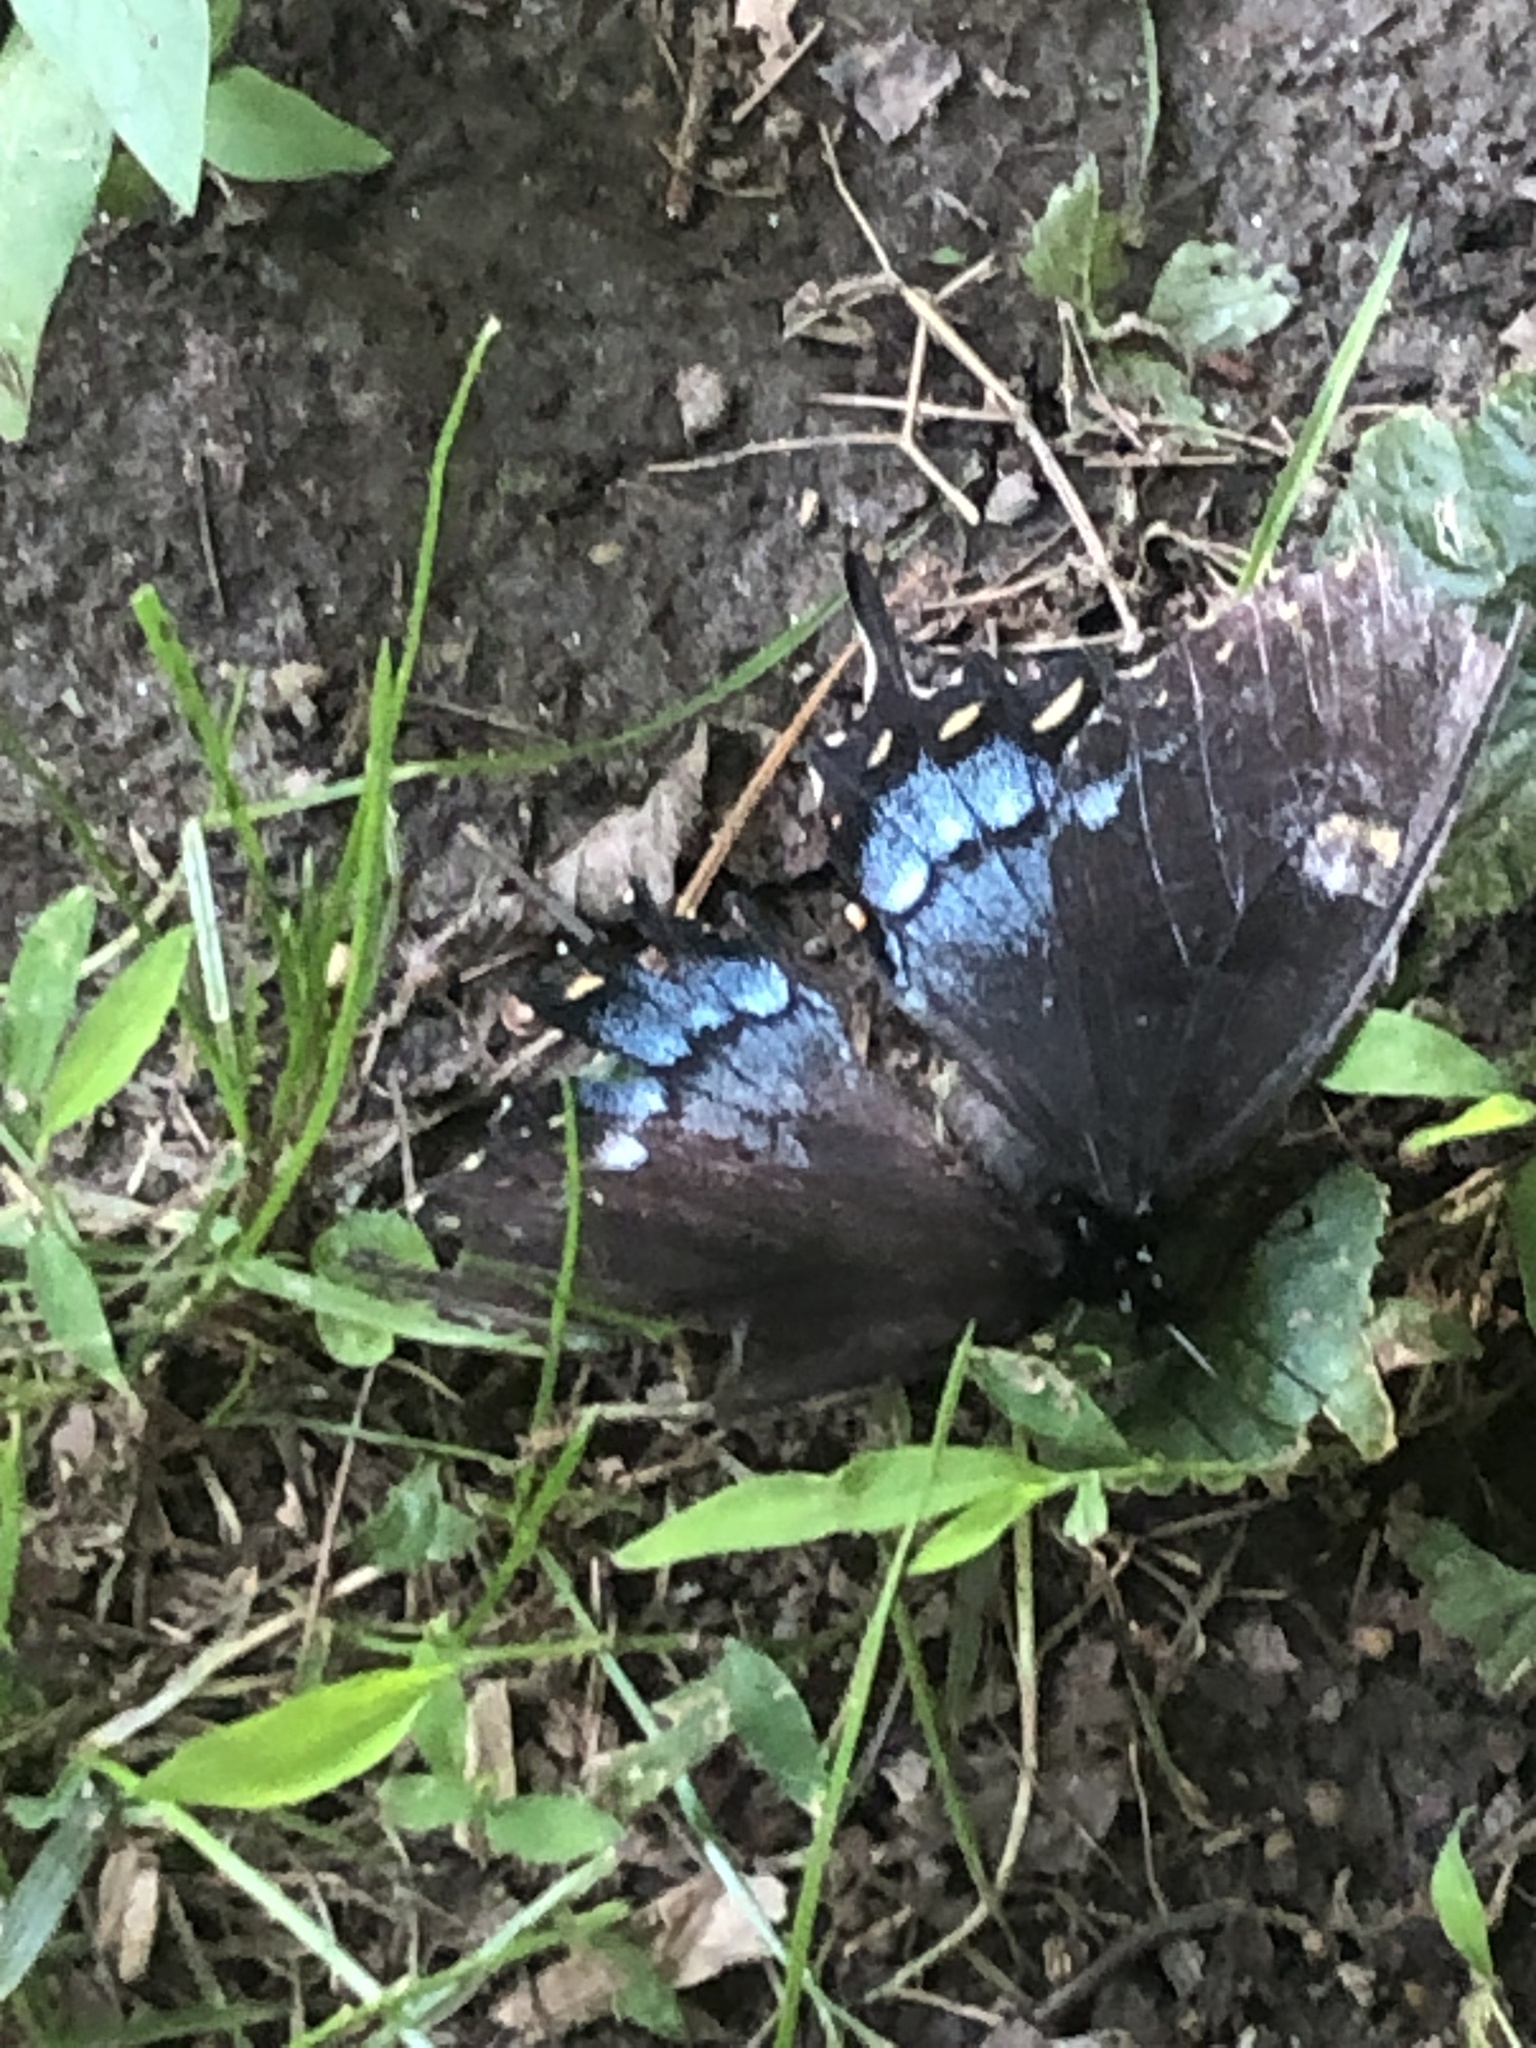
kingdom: Animalia
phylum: Arthropoda
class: Insecta
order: Lepidoptera
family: Papilionidae
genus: Papilio
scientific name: Papilio glaucus
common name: Tiger swallowtail
